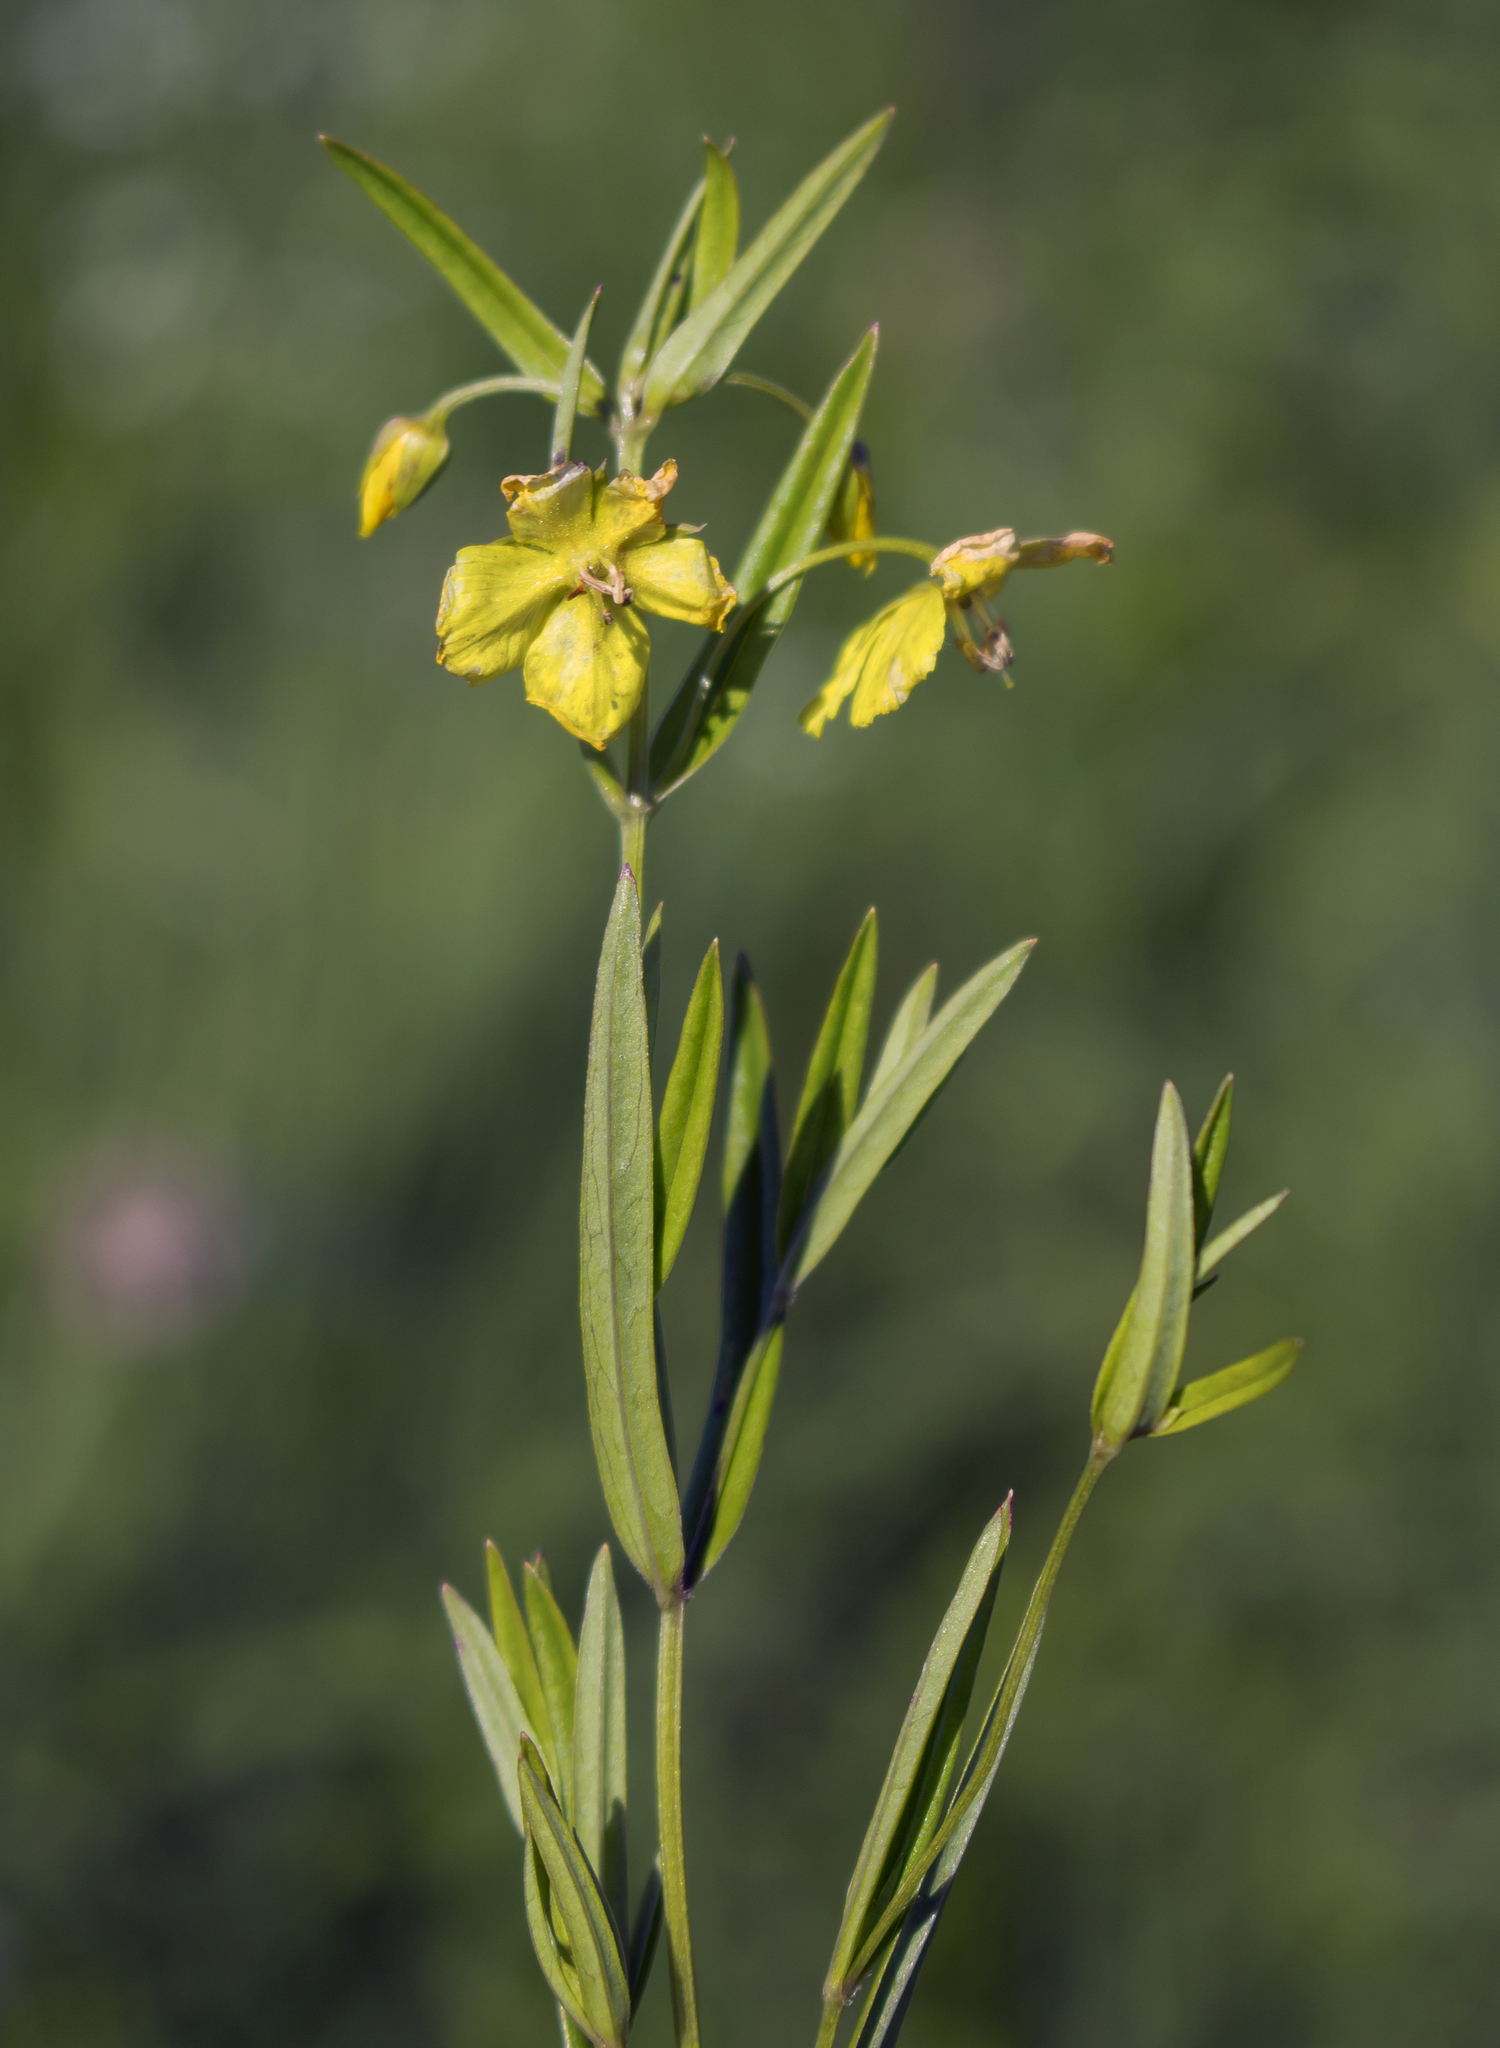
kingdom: Plantae
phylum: Tracheophyta
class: Magnoliopsida
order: Ericales
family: Primulaceae
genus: Lysimachia
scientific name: Lysimachia quadriflora
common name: Four-flowered loosestrife
